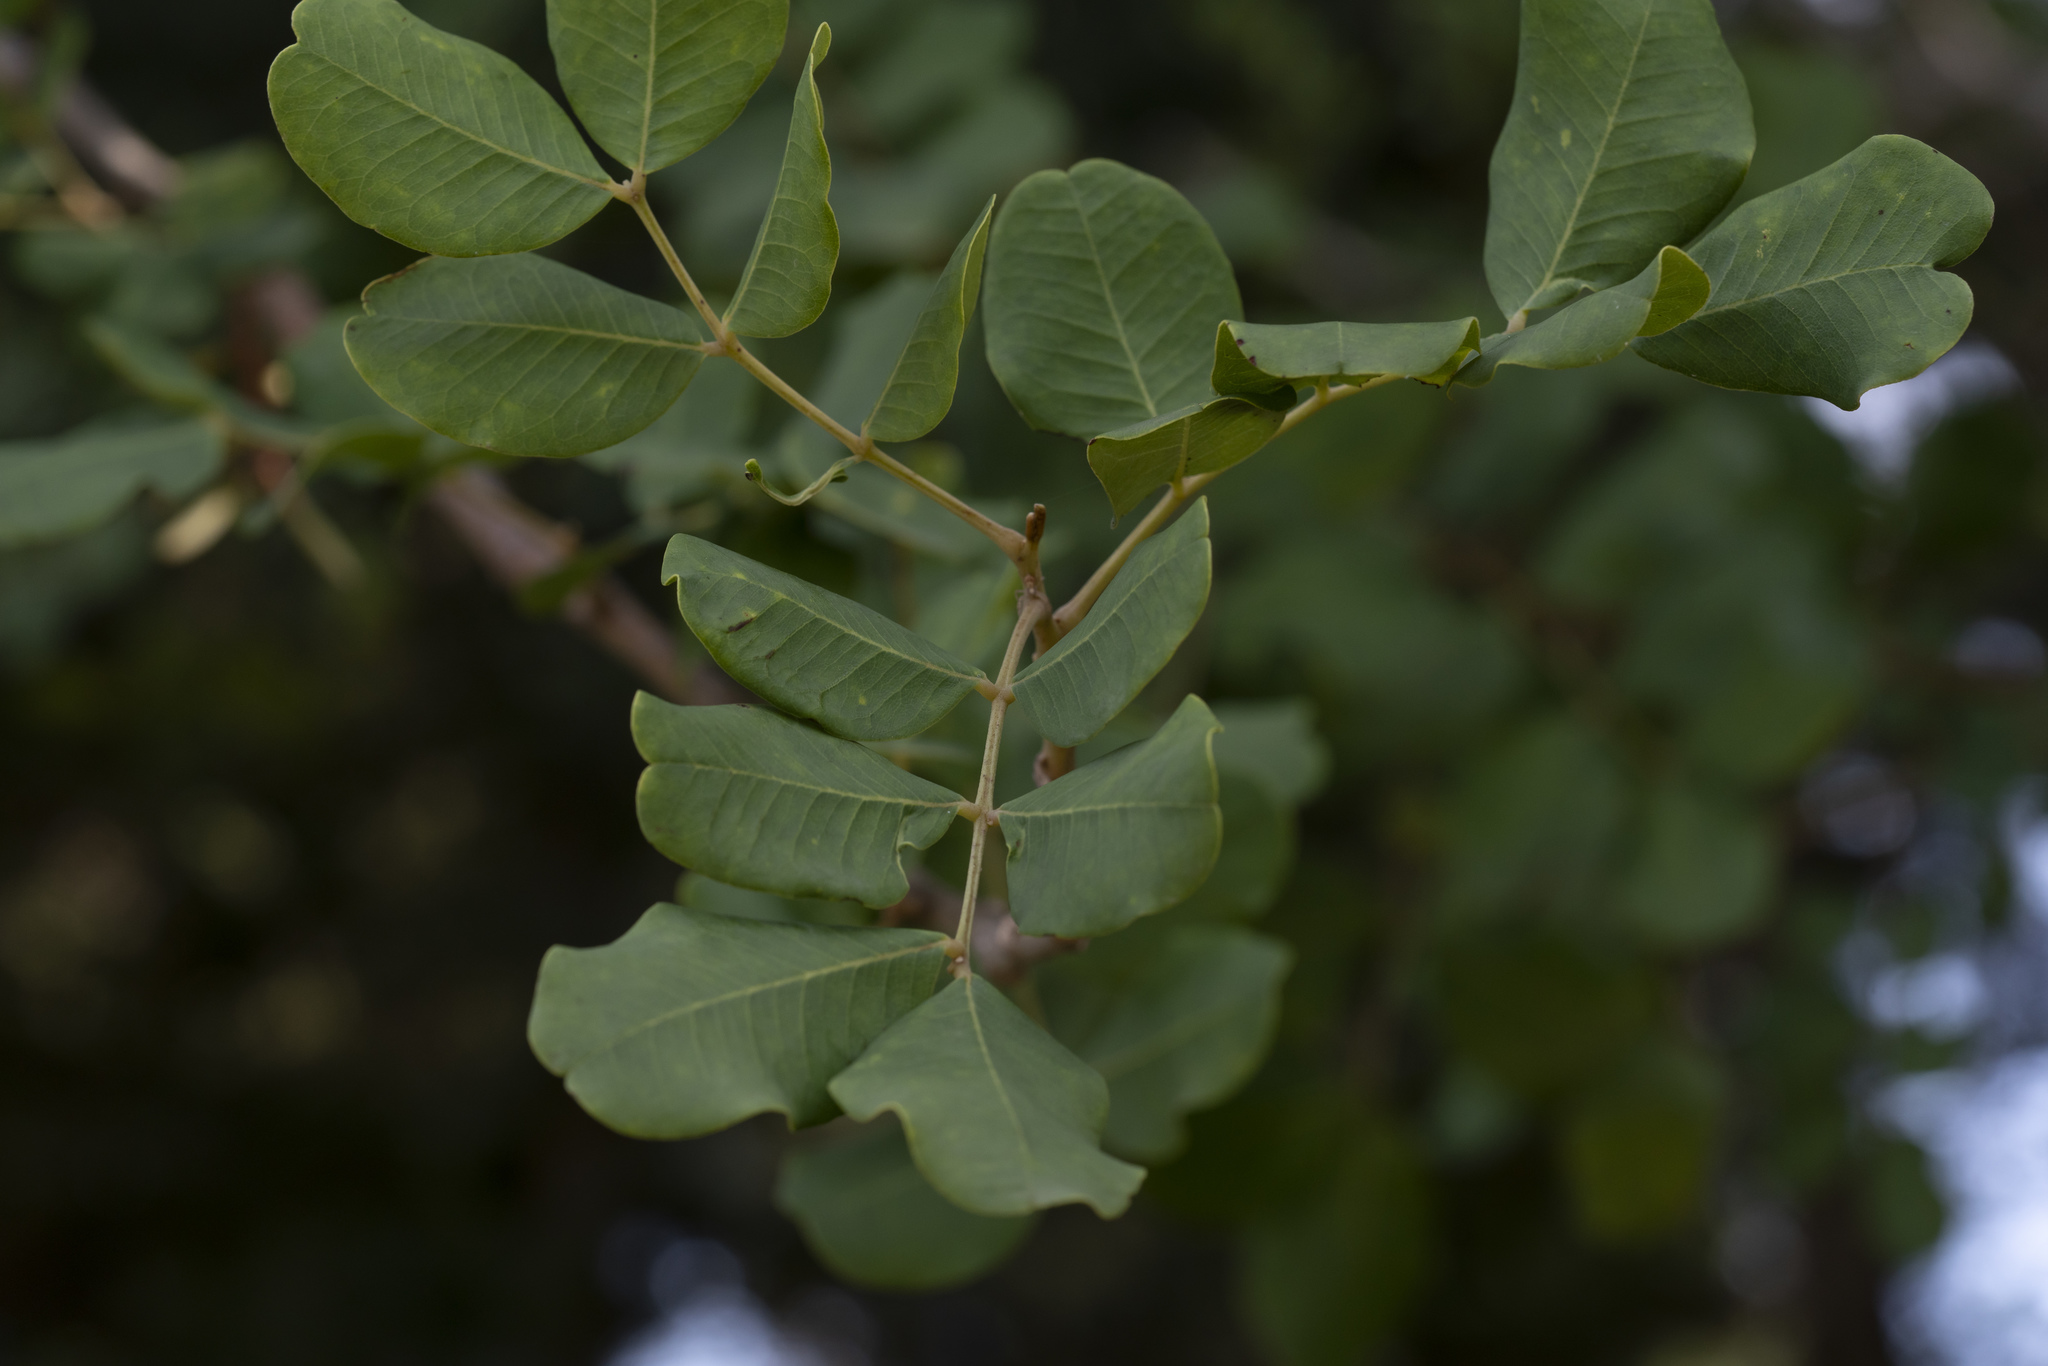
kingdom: Plantae
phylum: Tracheophyta
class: Magnoliopsida
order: Fabales
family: Fabaceae
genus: Ceratonia
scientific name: Ceratonia siliqua
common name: Carob
